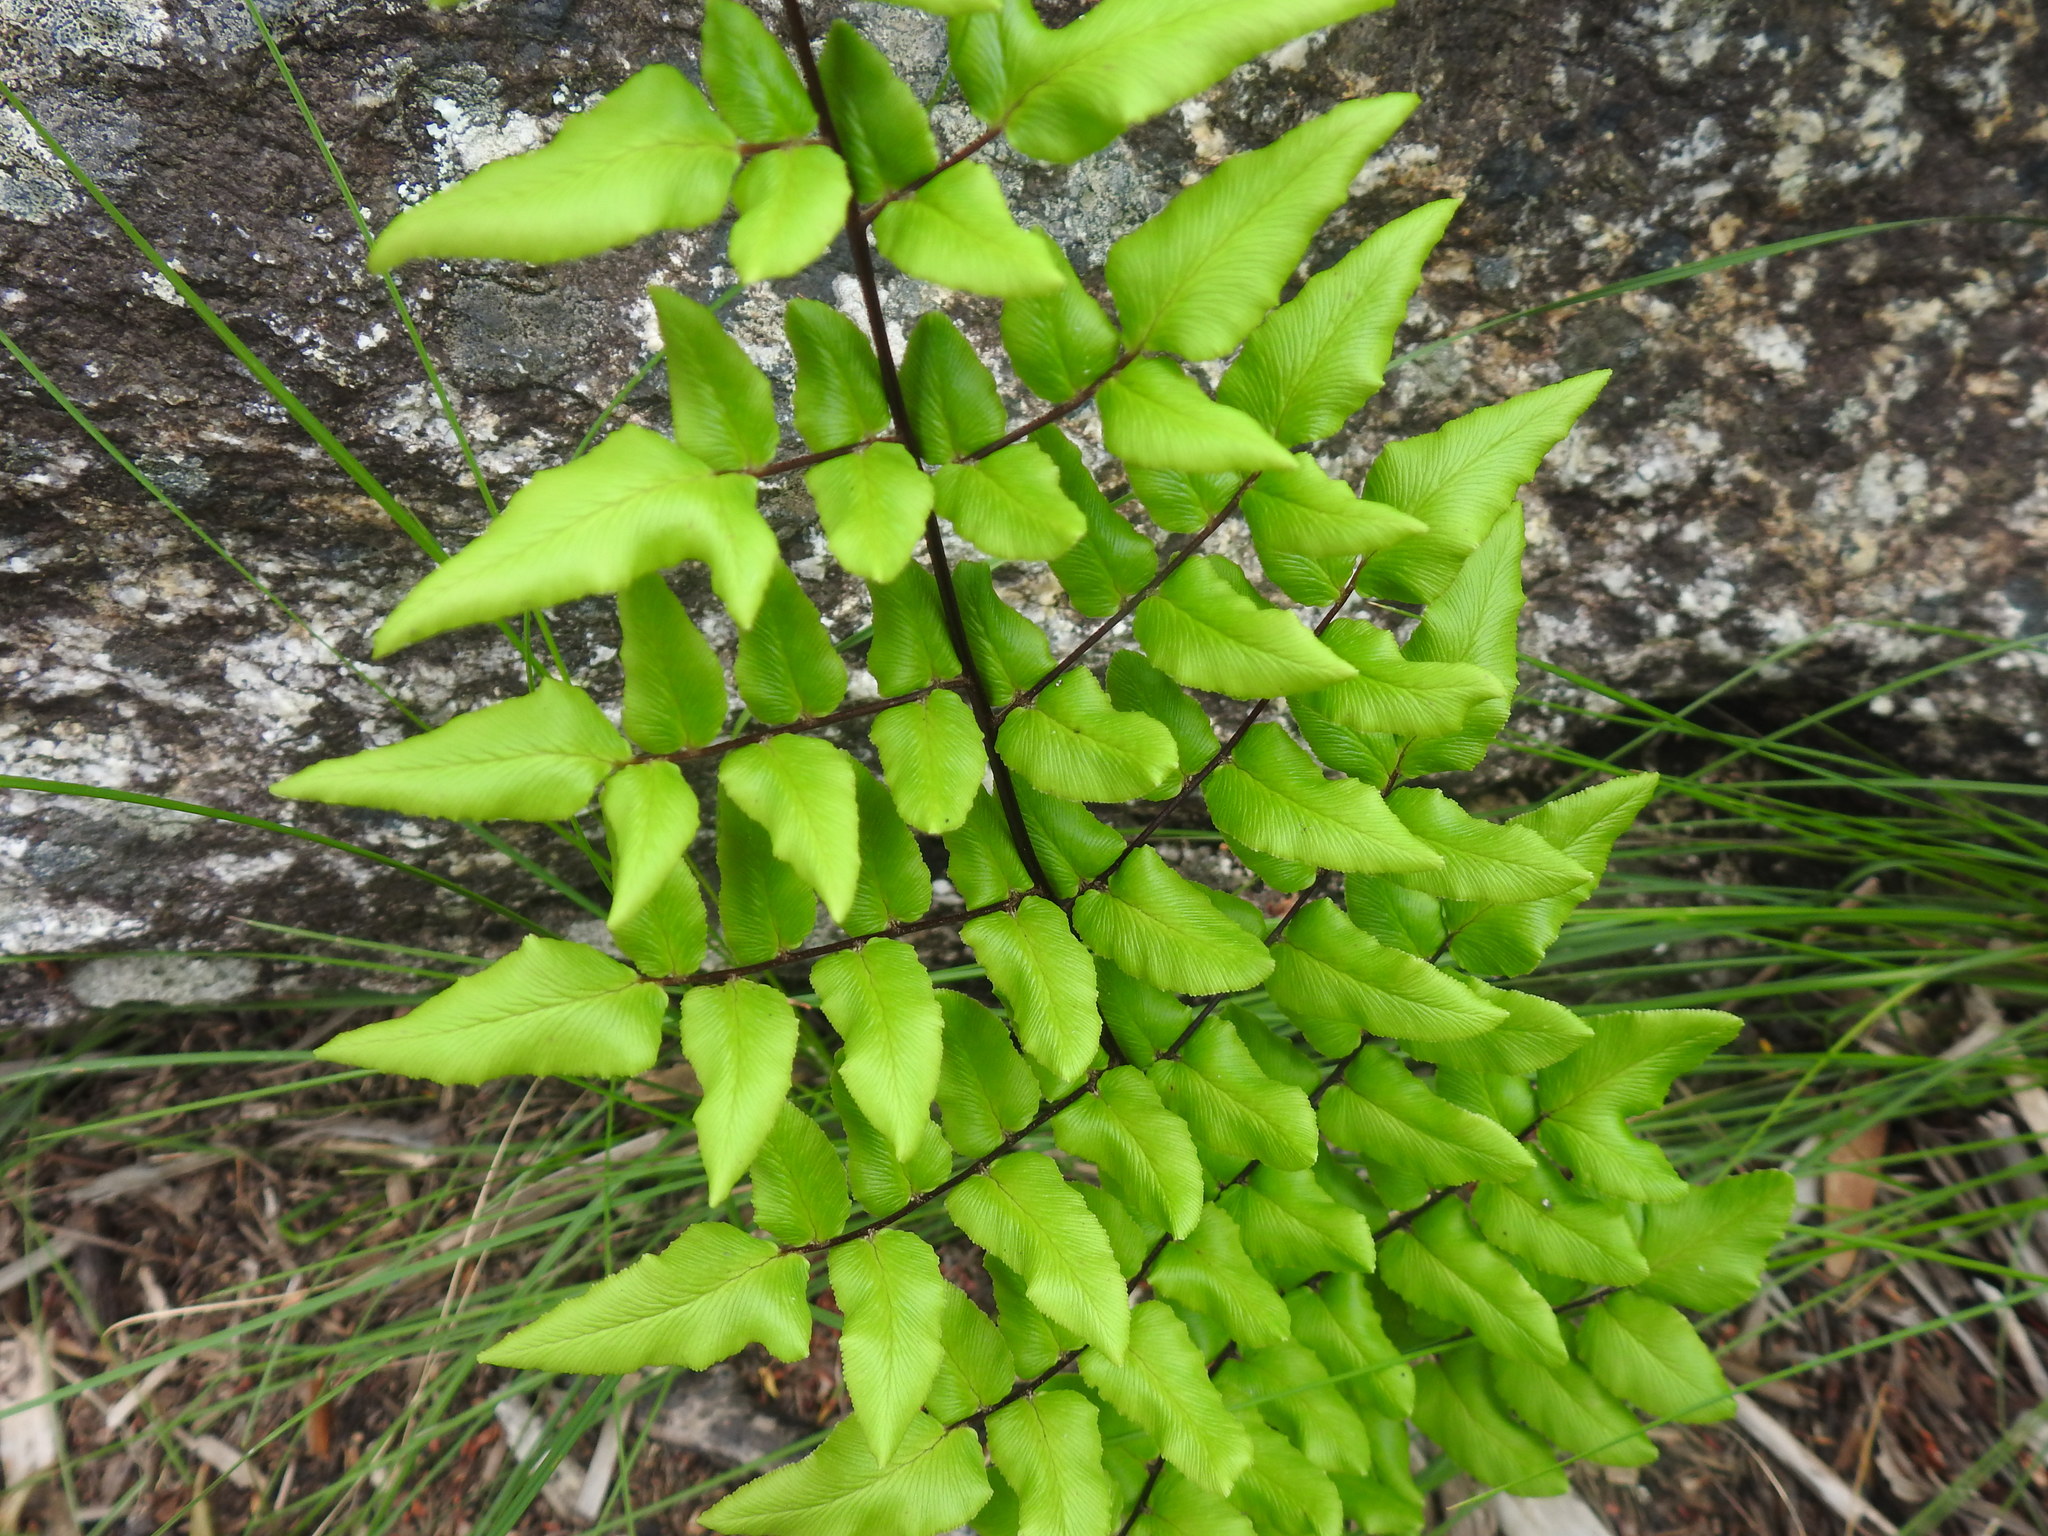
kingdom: Plantae
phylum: Tracheophyta
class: Polypodiopsida
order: Polypodiales
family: Pteridaceae
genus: Cheilanthes
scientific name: Cheilanthes viridis
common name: Green cliffbrake
